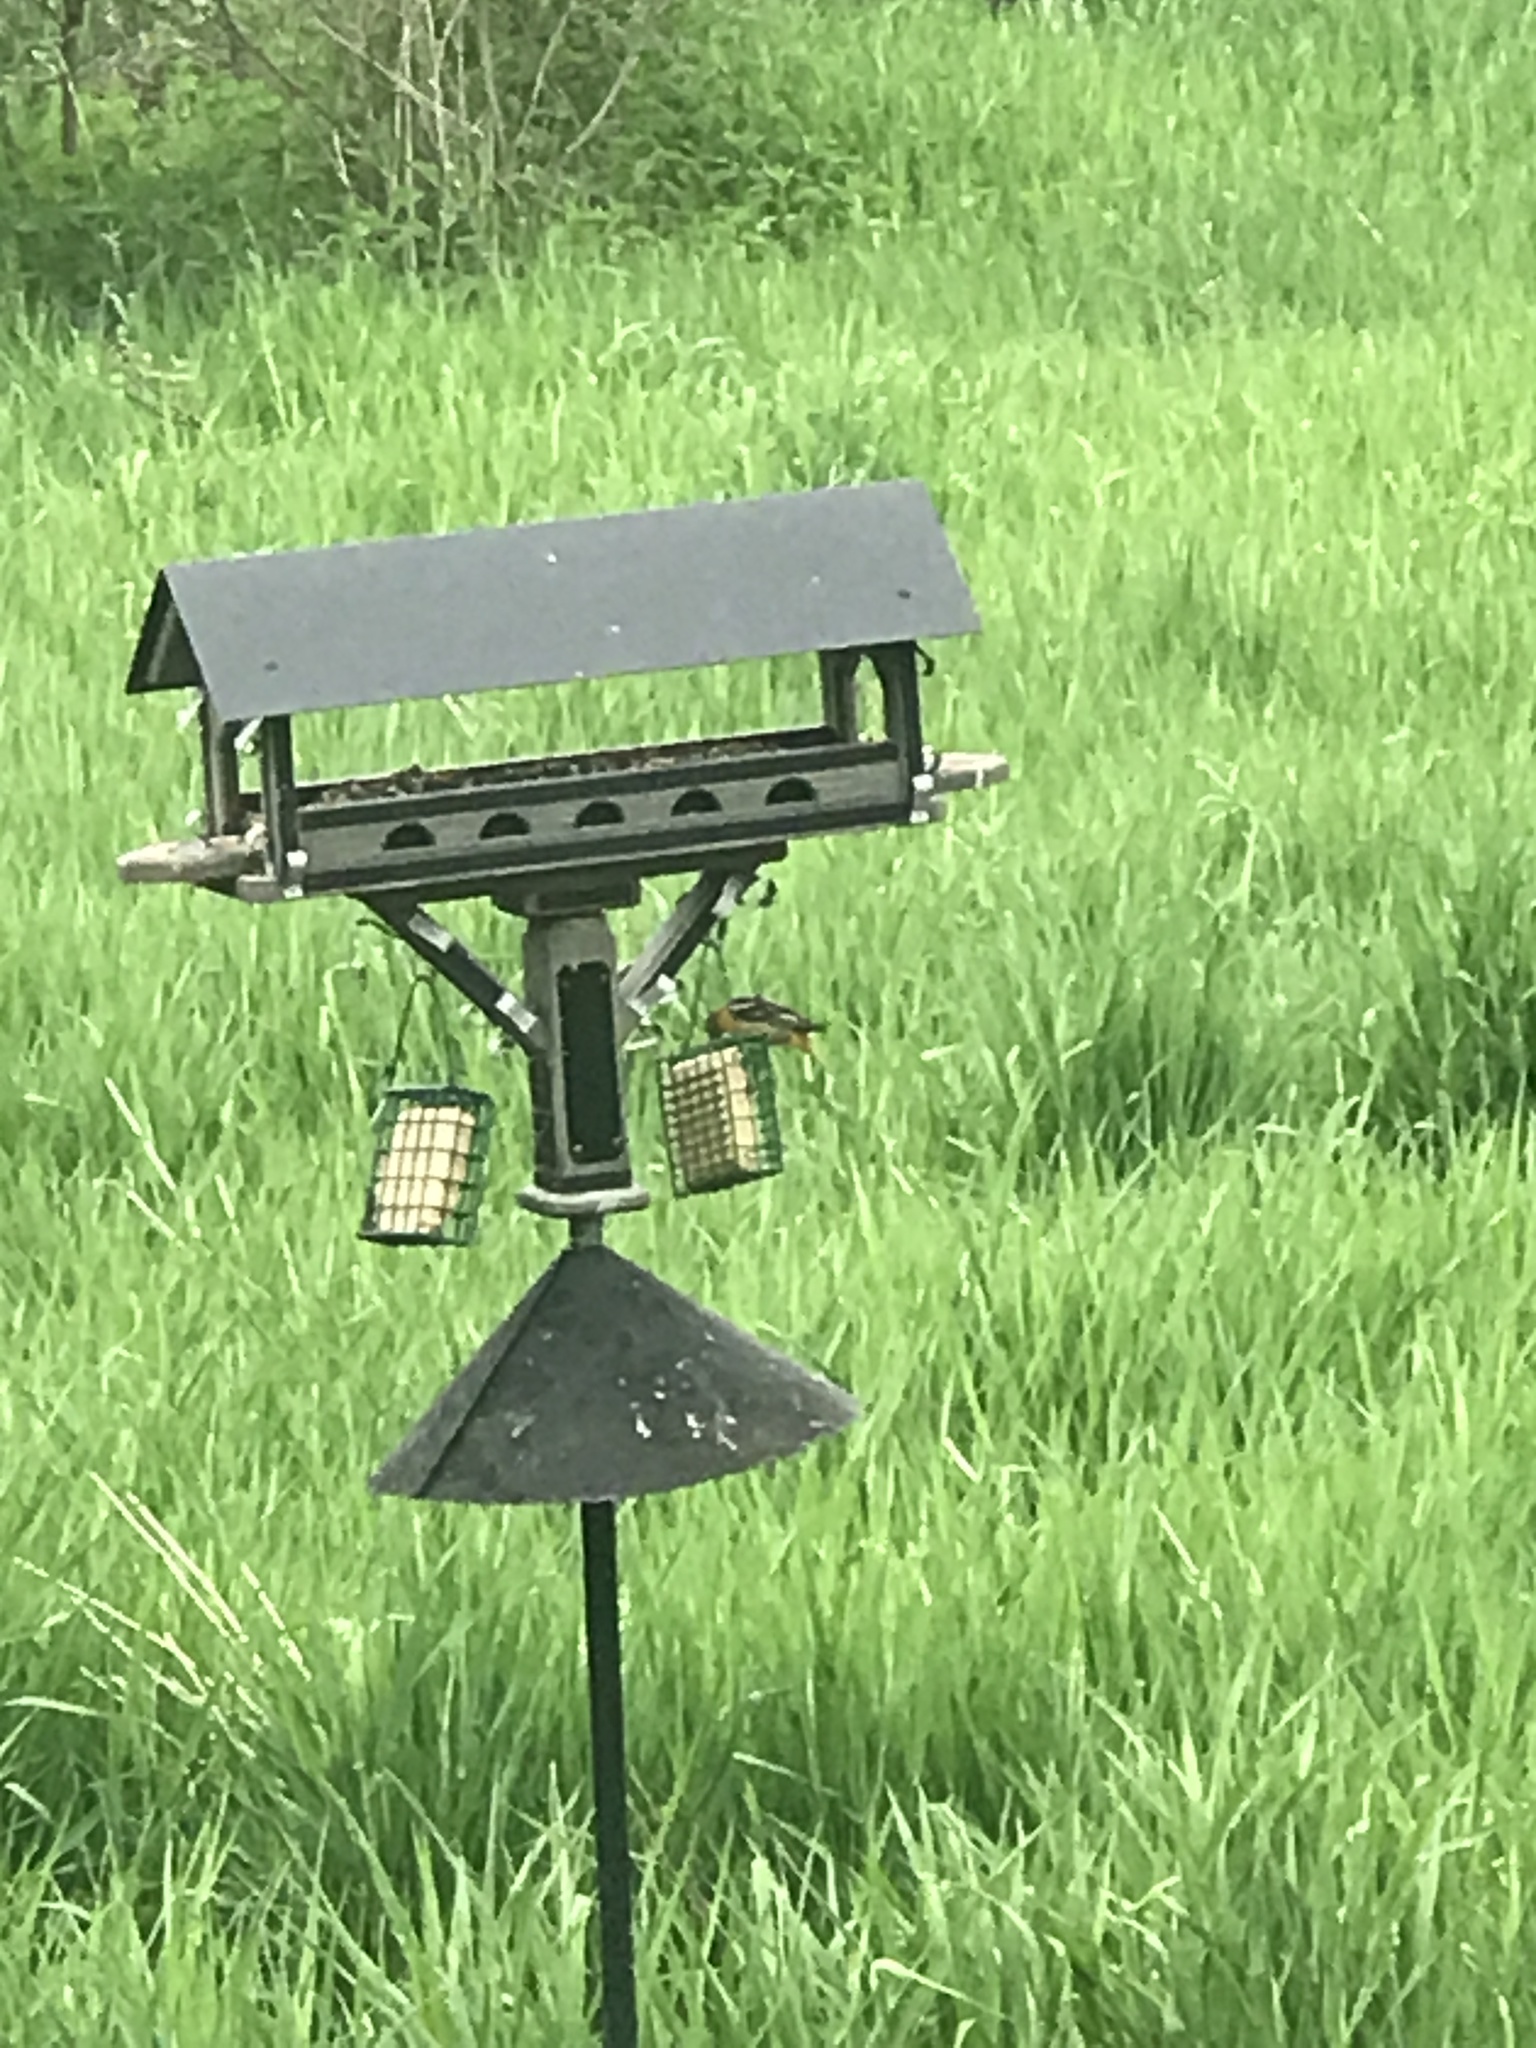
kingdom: Animalia
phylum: Chordata
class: Aves
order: Passeriformes
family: Icteridae
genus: Icterus
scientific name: Icterus galbula
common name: Baltimore oriole
